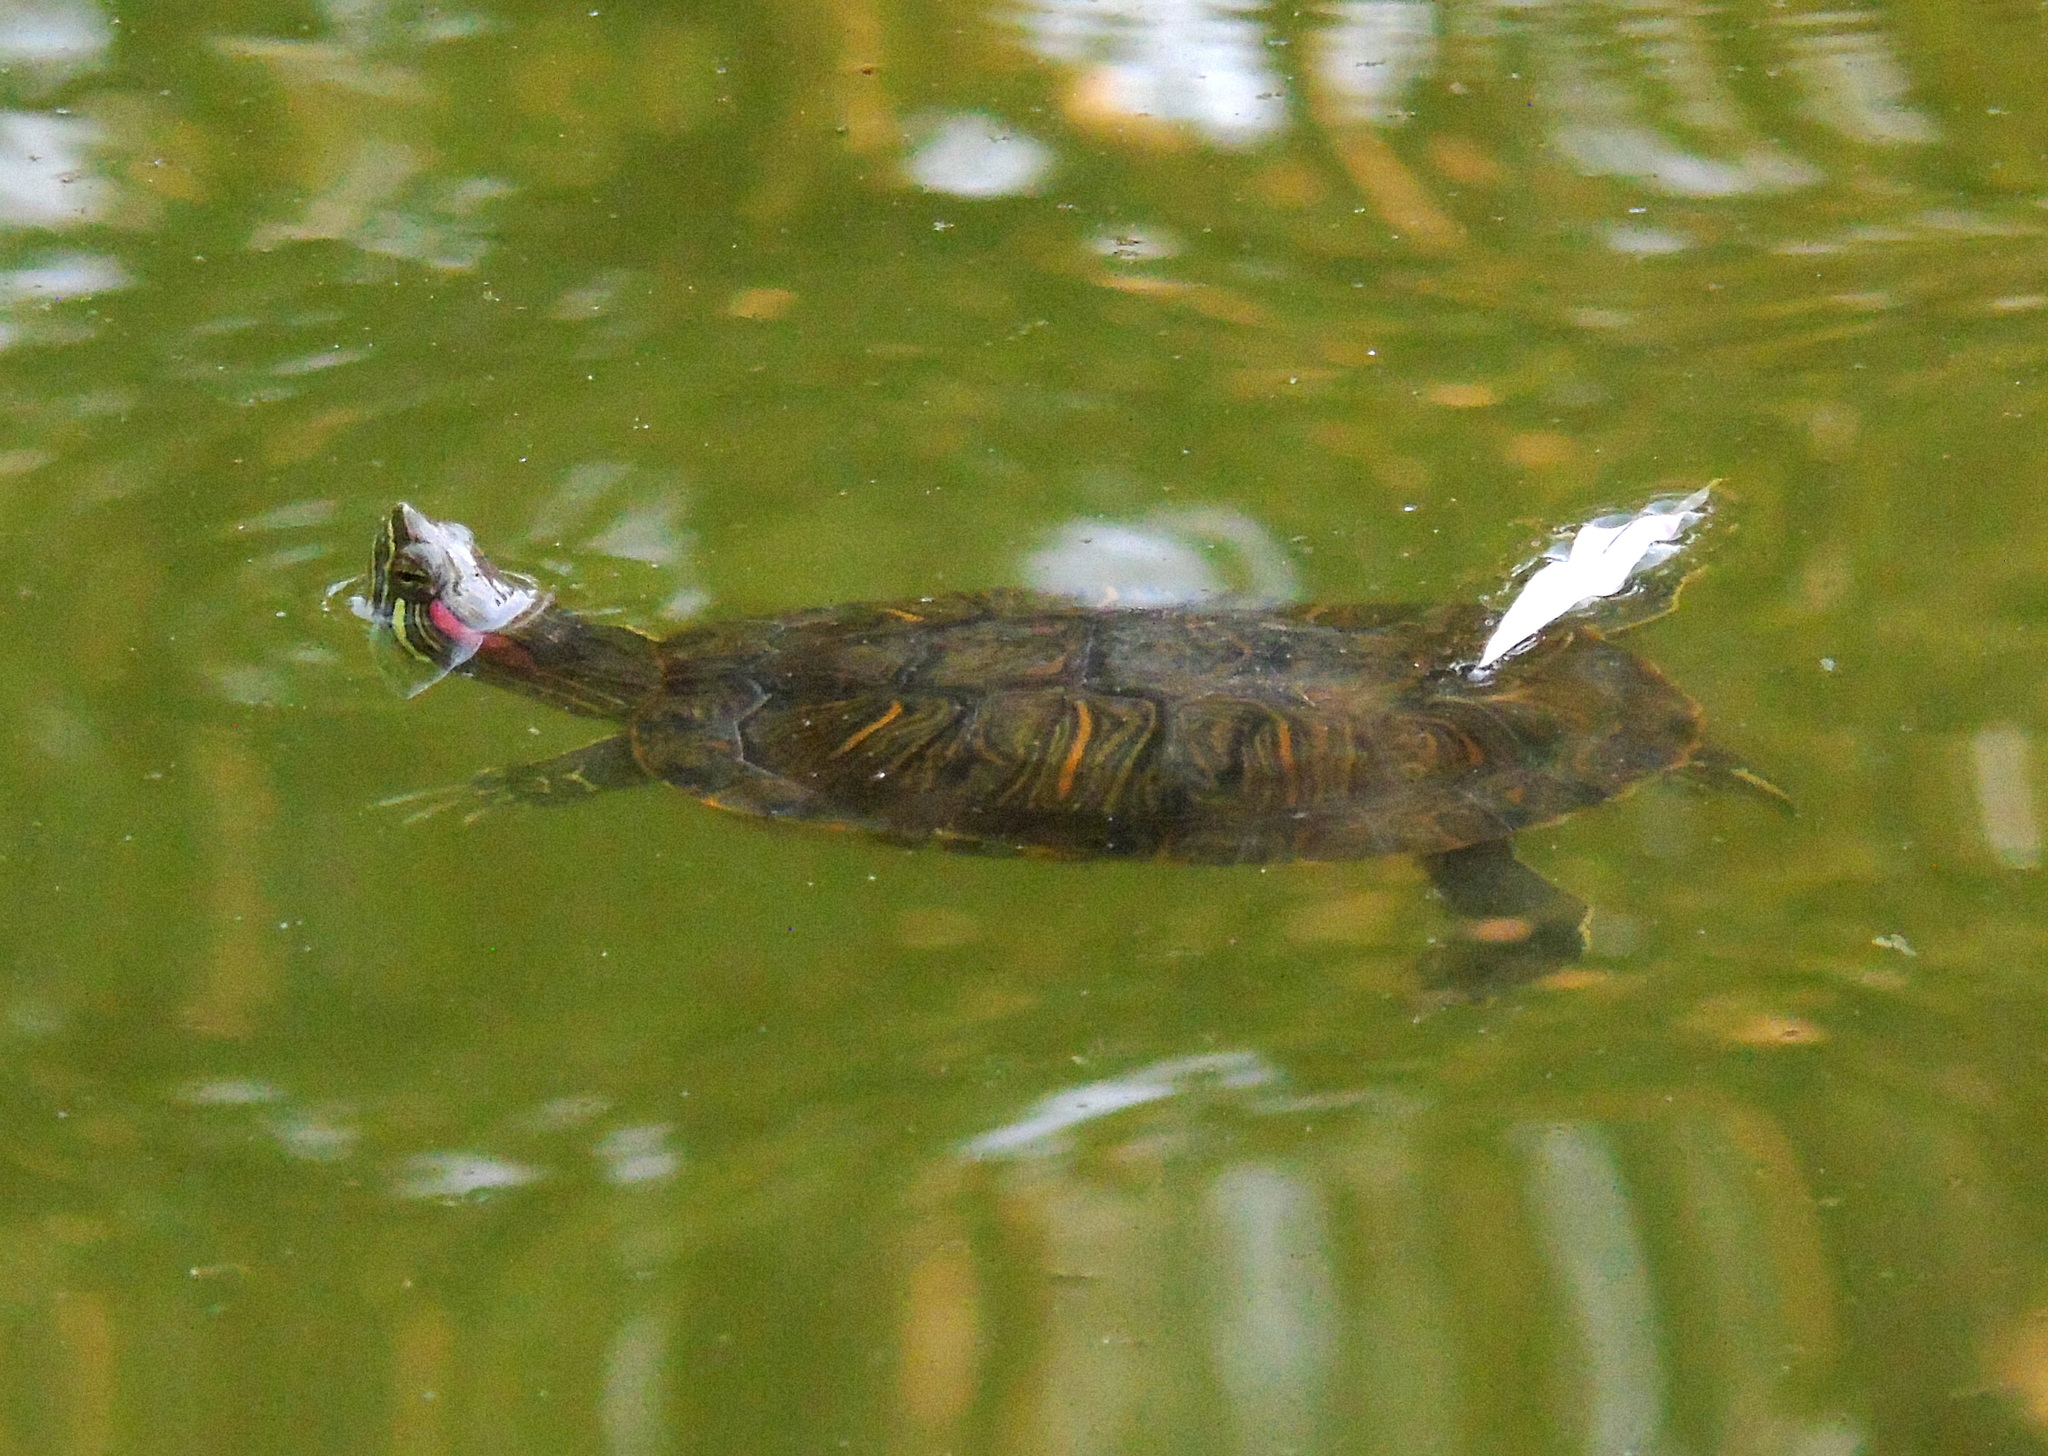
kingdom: Animalia
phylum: Chordata
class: Testudines
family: Emydidae
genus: Trachemys
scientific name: Trachemys scripta
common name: Slider
